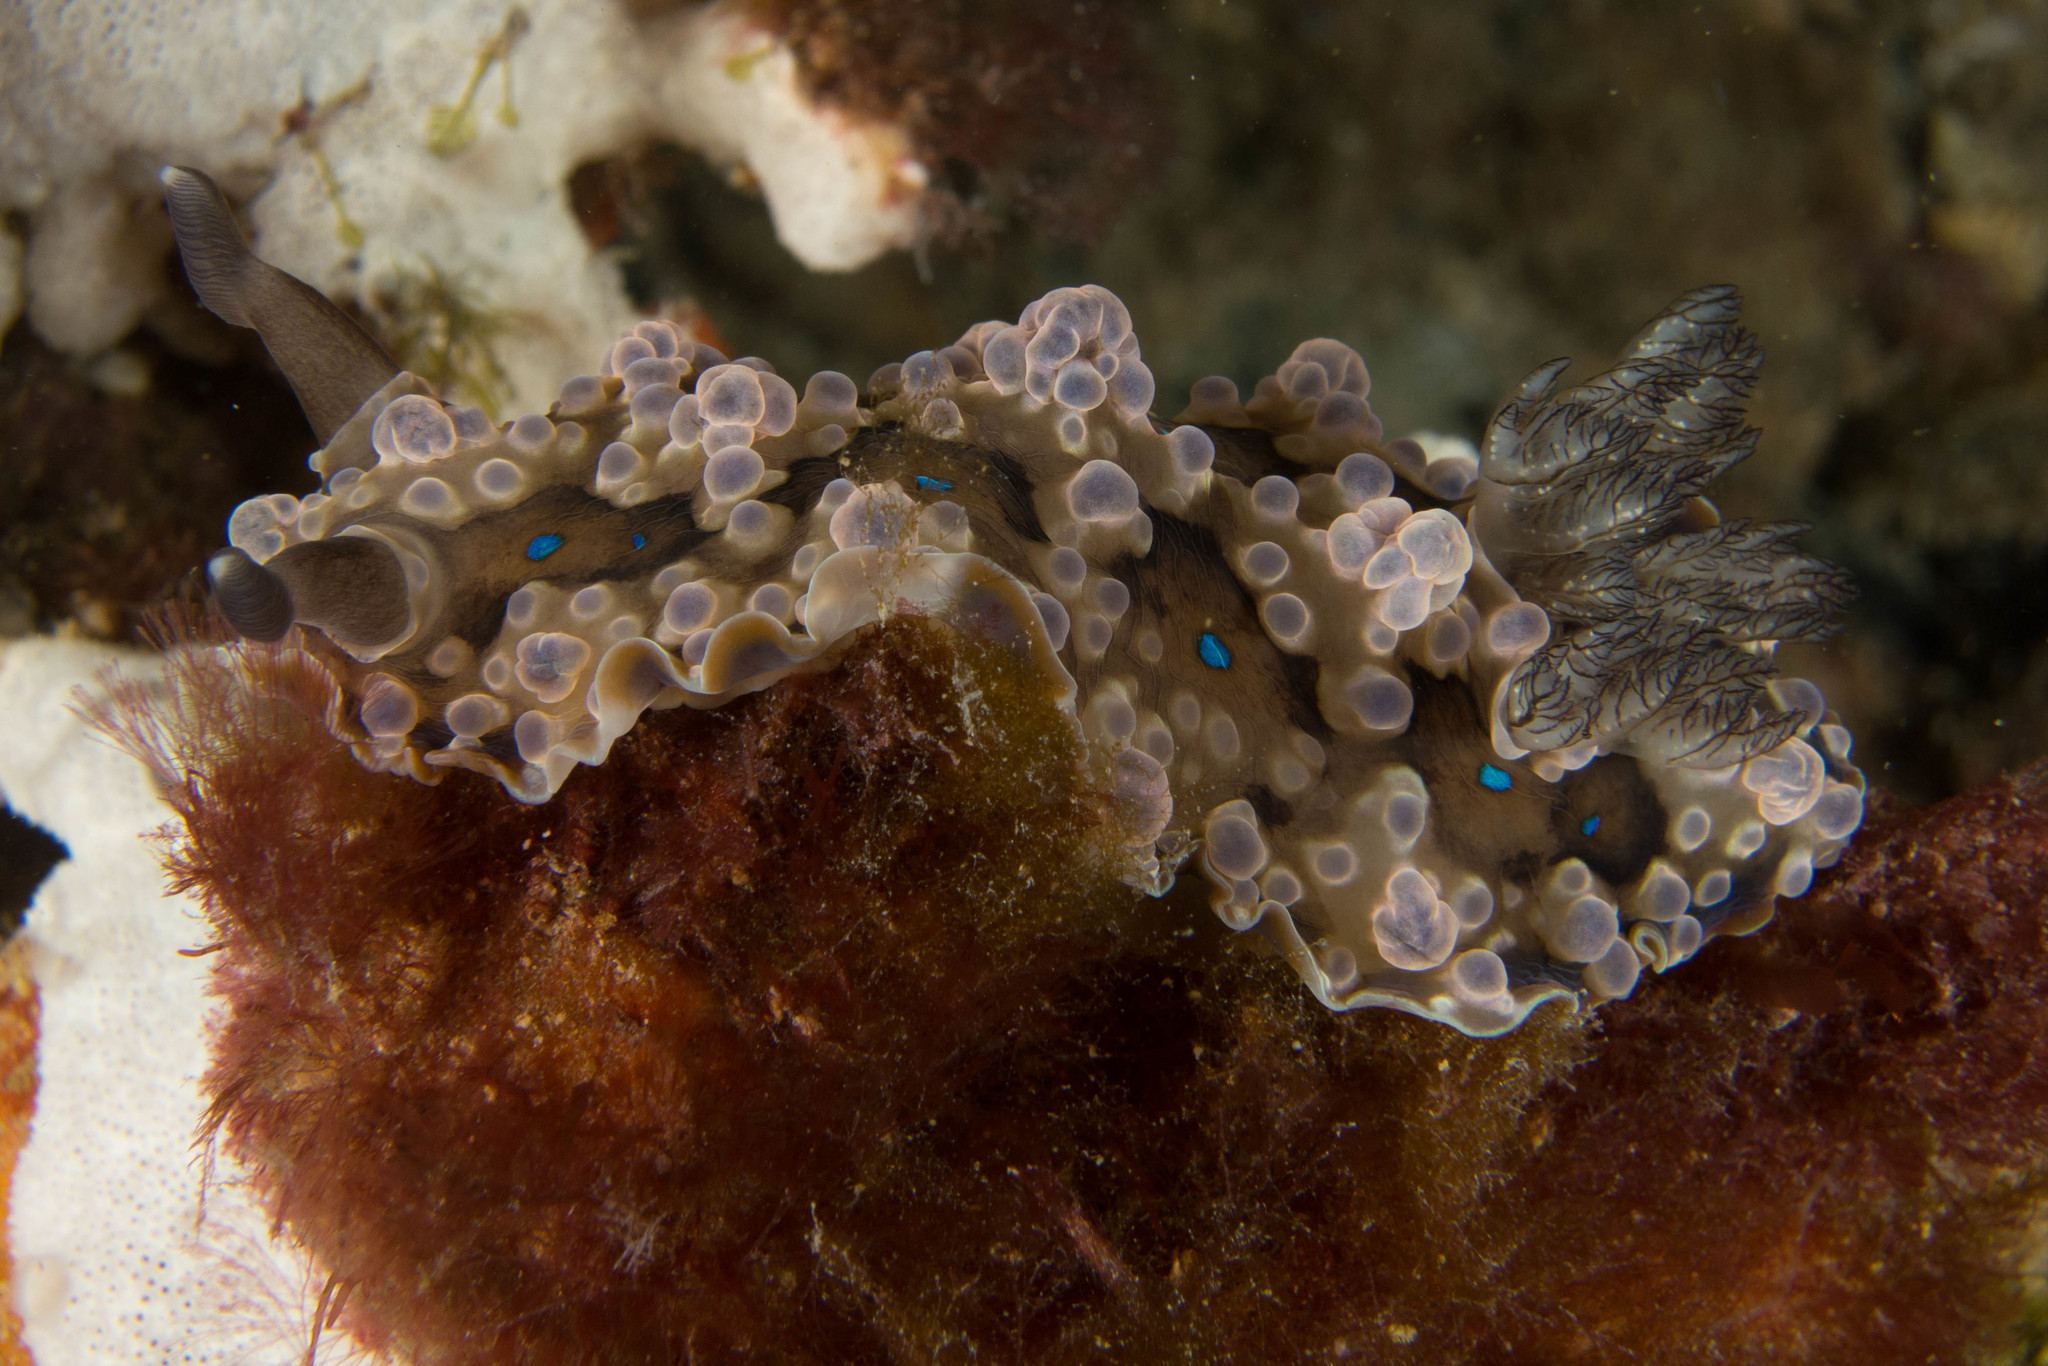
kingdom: Animalia
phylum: Mollusca
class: Gastropoda
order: Nudibranchia
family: Dendrodorididae
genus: Dendrodoris
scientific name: Dendrodoris krusensternii
